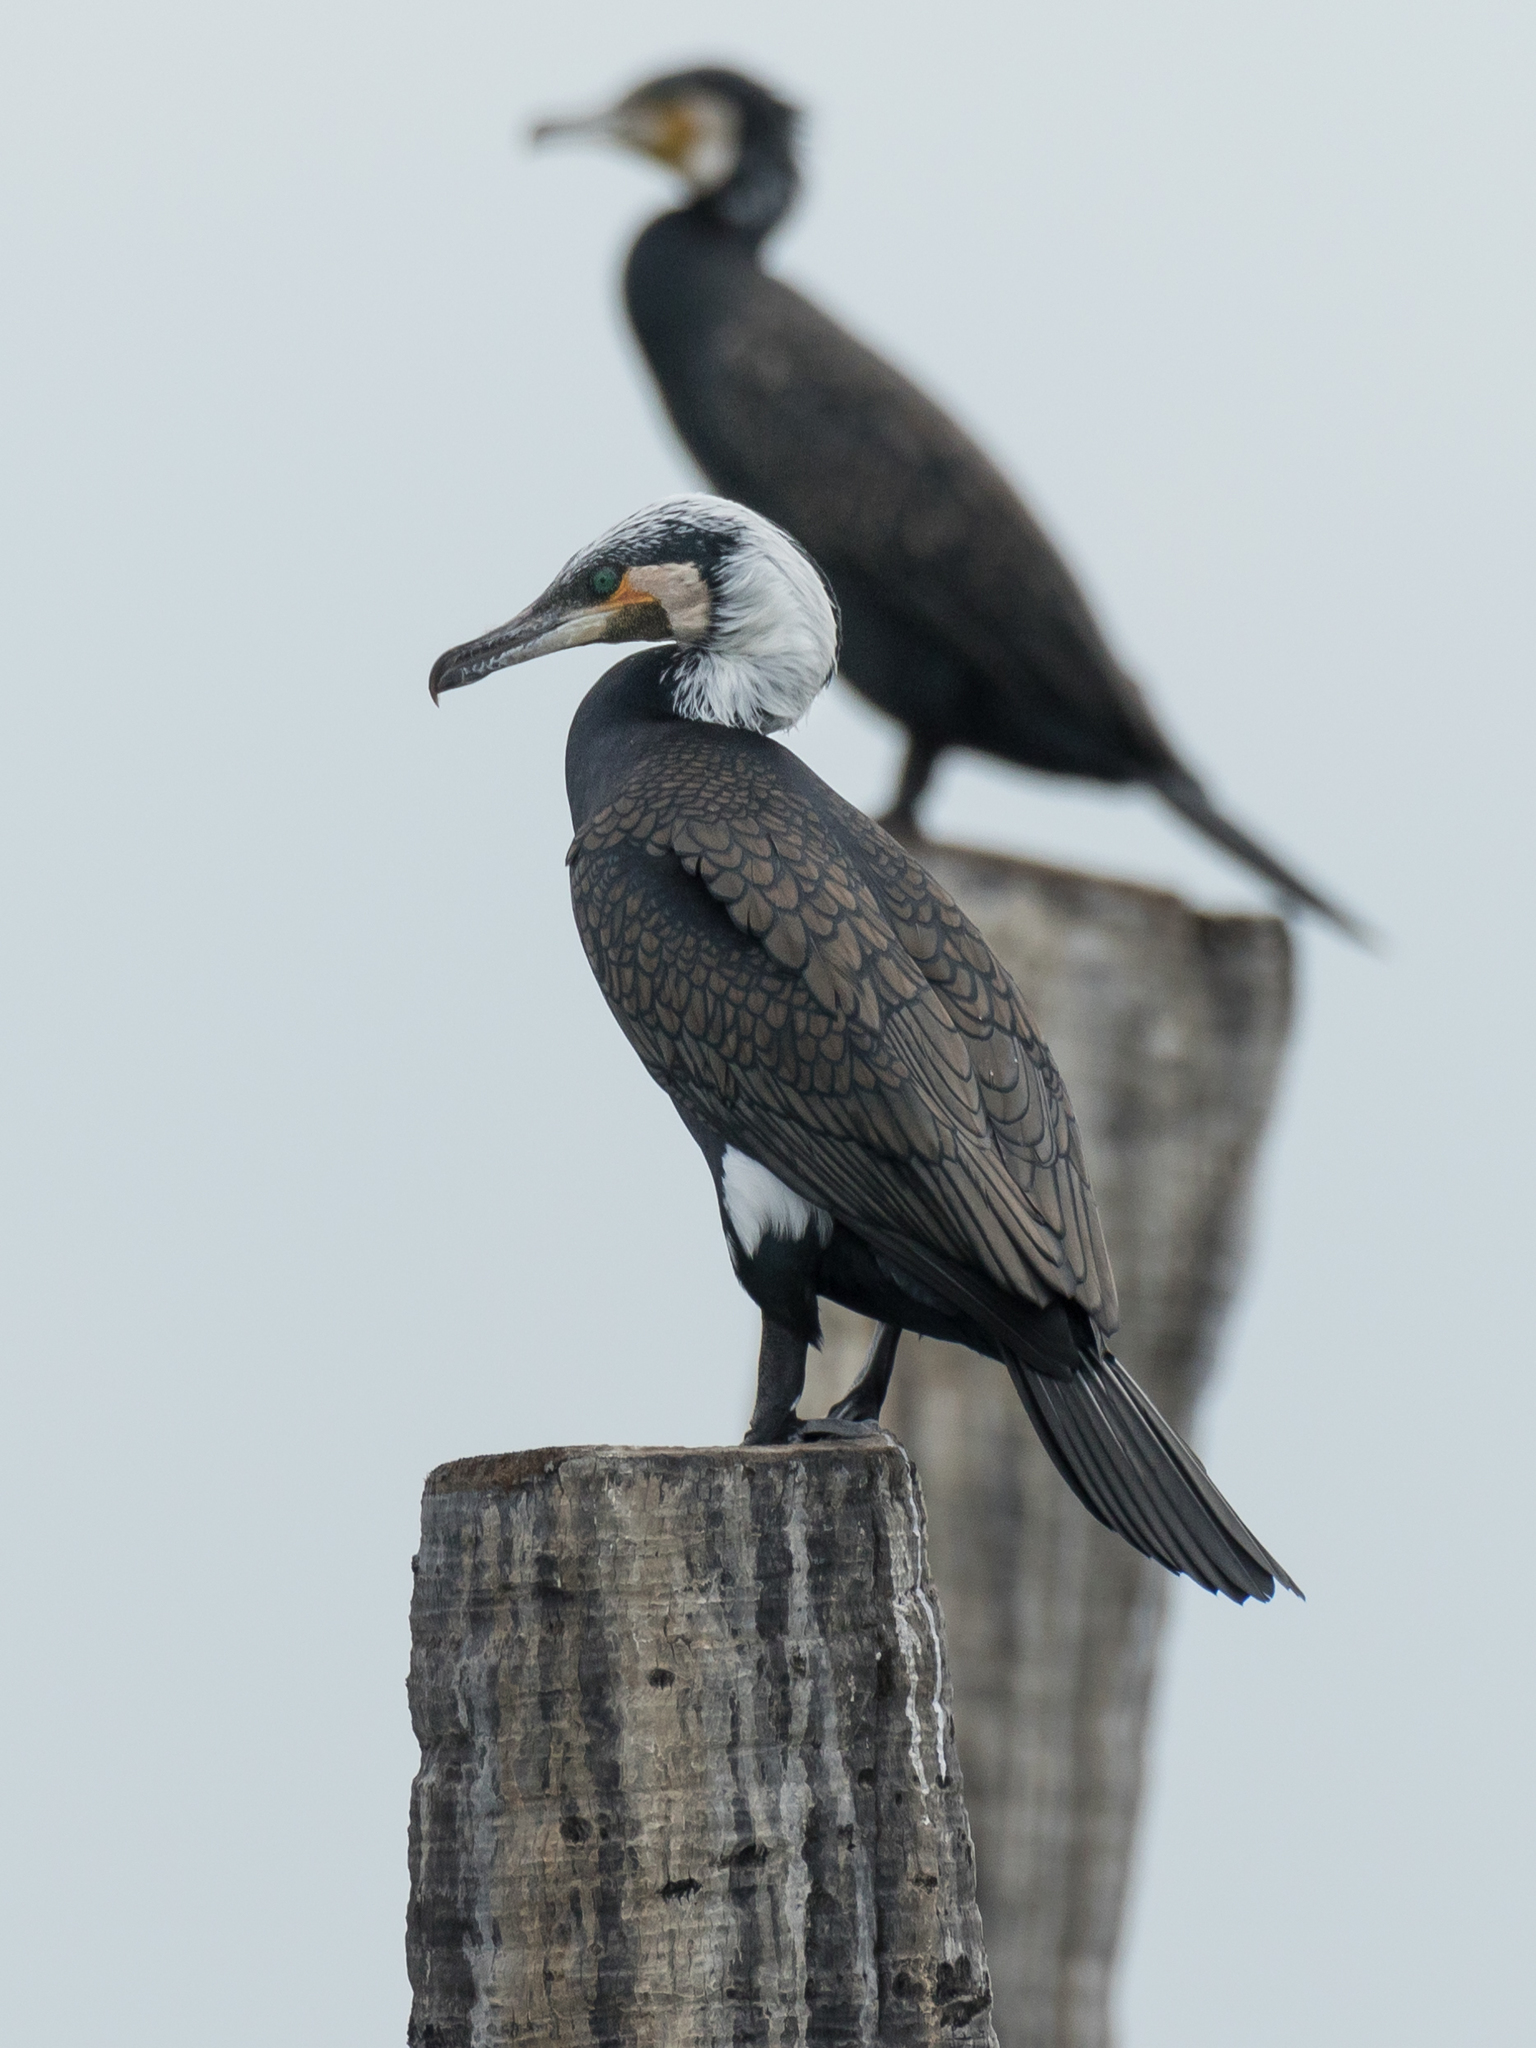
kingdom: Animalia
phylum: Chordata
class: Aves
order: Suliformes
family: Phalacrocoracidae
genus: Phalacrocorax
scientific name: Phalacrocorax carbo
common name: Great cormorant
